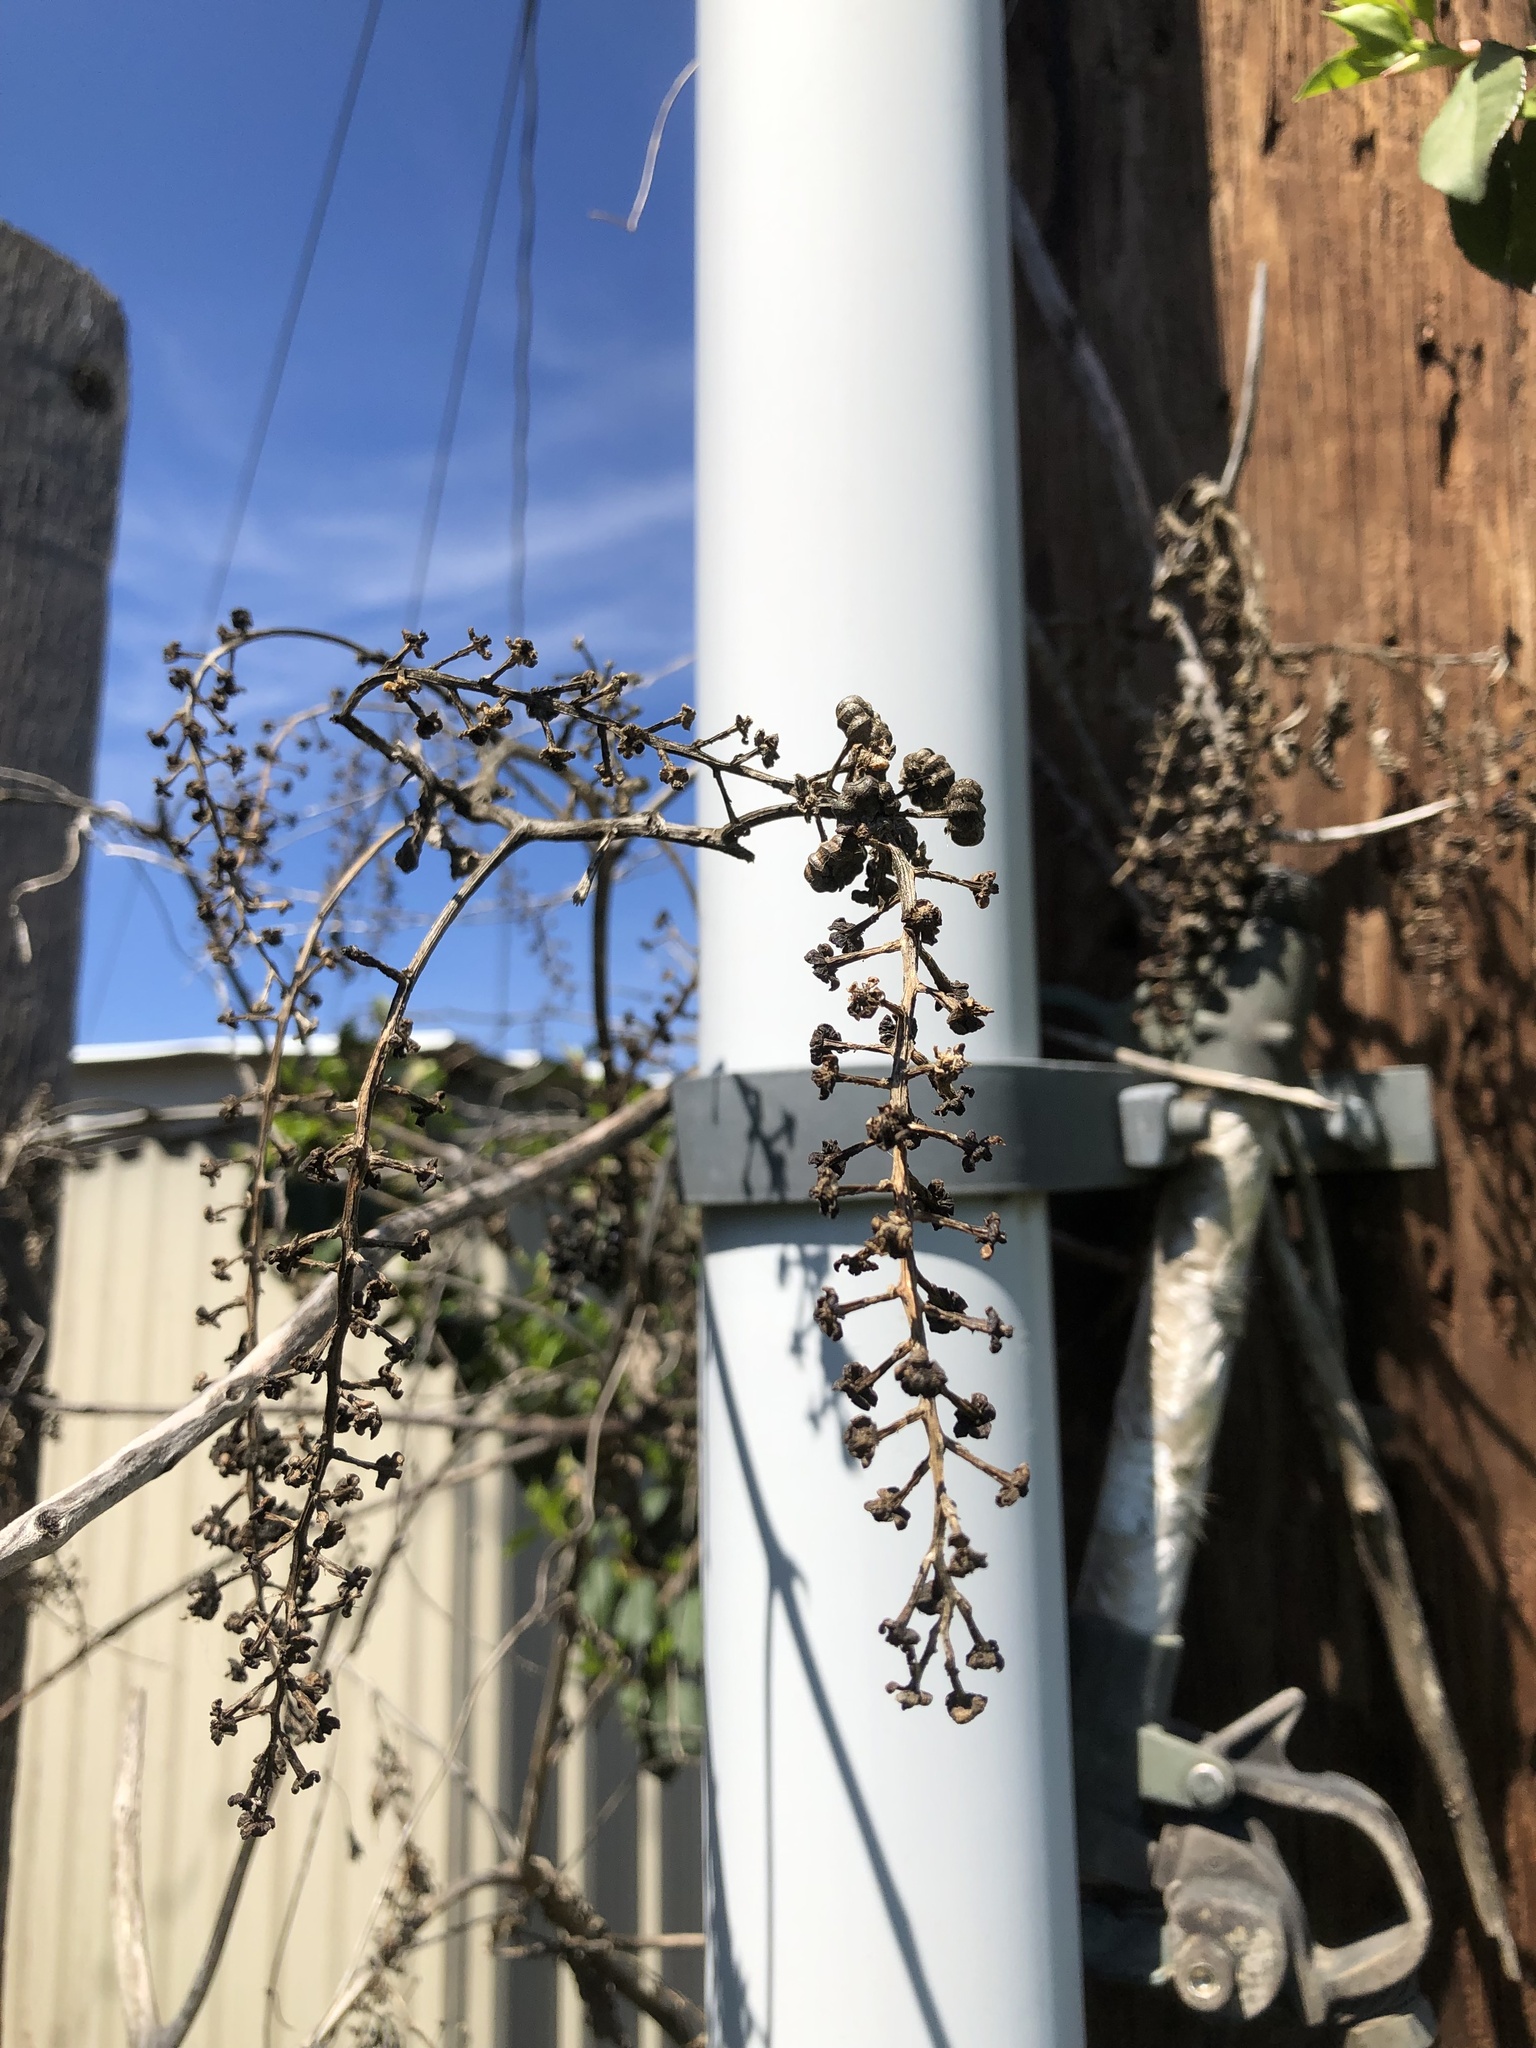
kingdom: Plantae
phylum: Tracheophyta
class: Magnoliopsida
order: Caryophyllales
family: Phytolaccaceae
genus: Phytolacca
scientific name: Phytolacca americana
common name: American pokeweed
